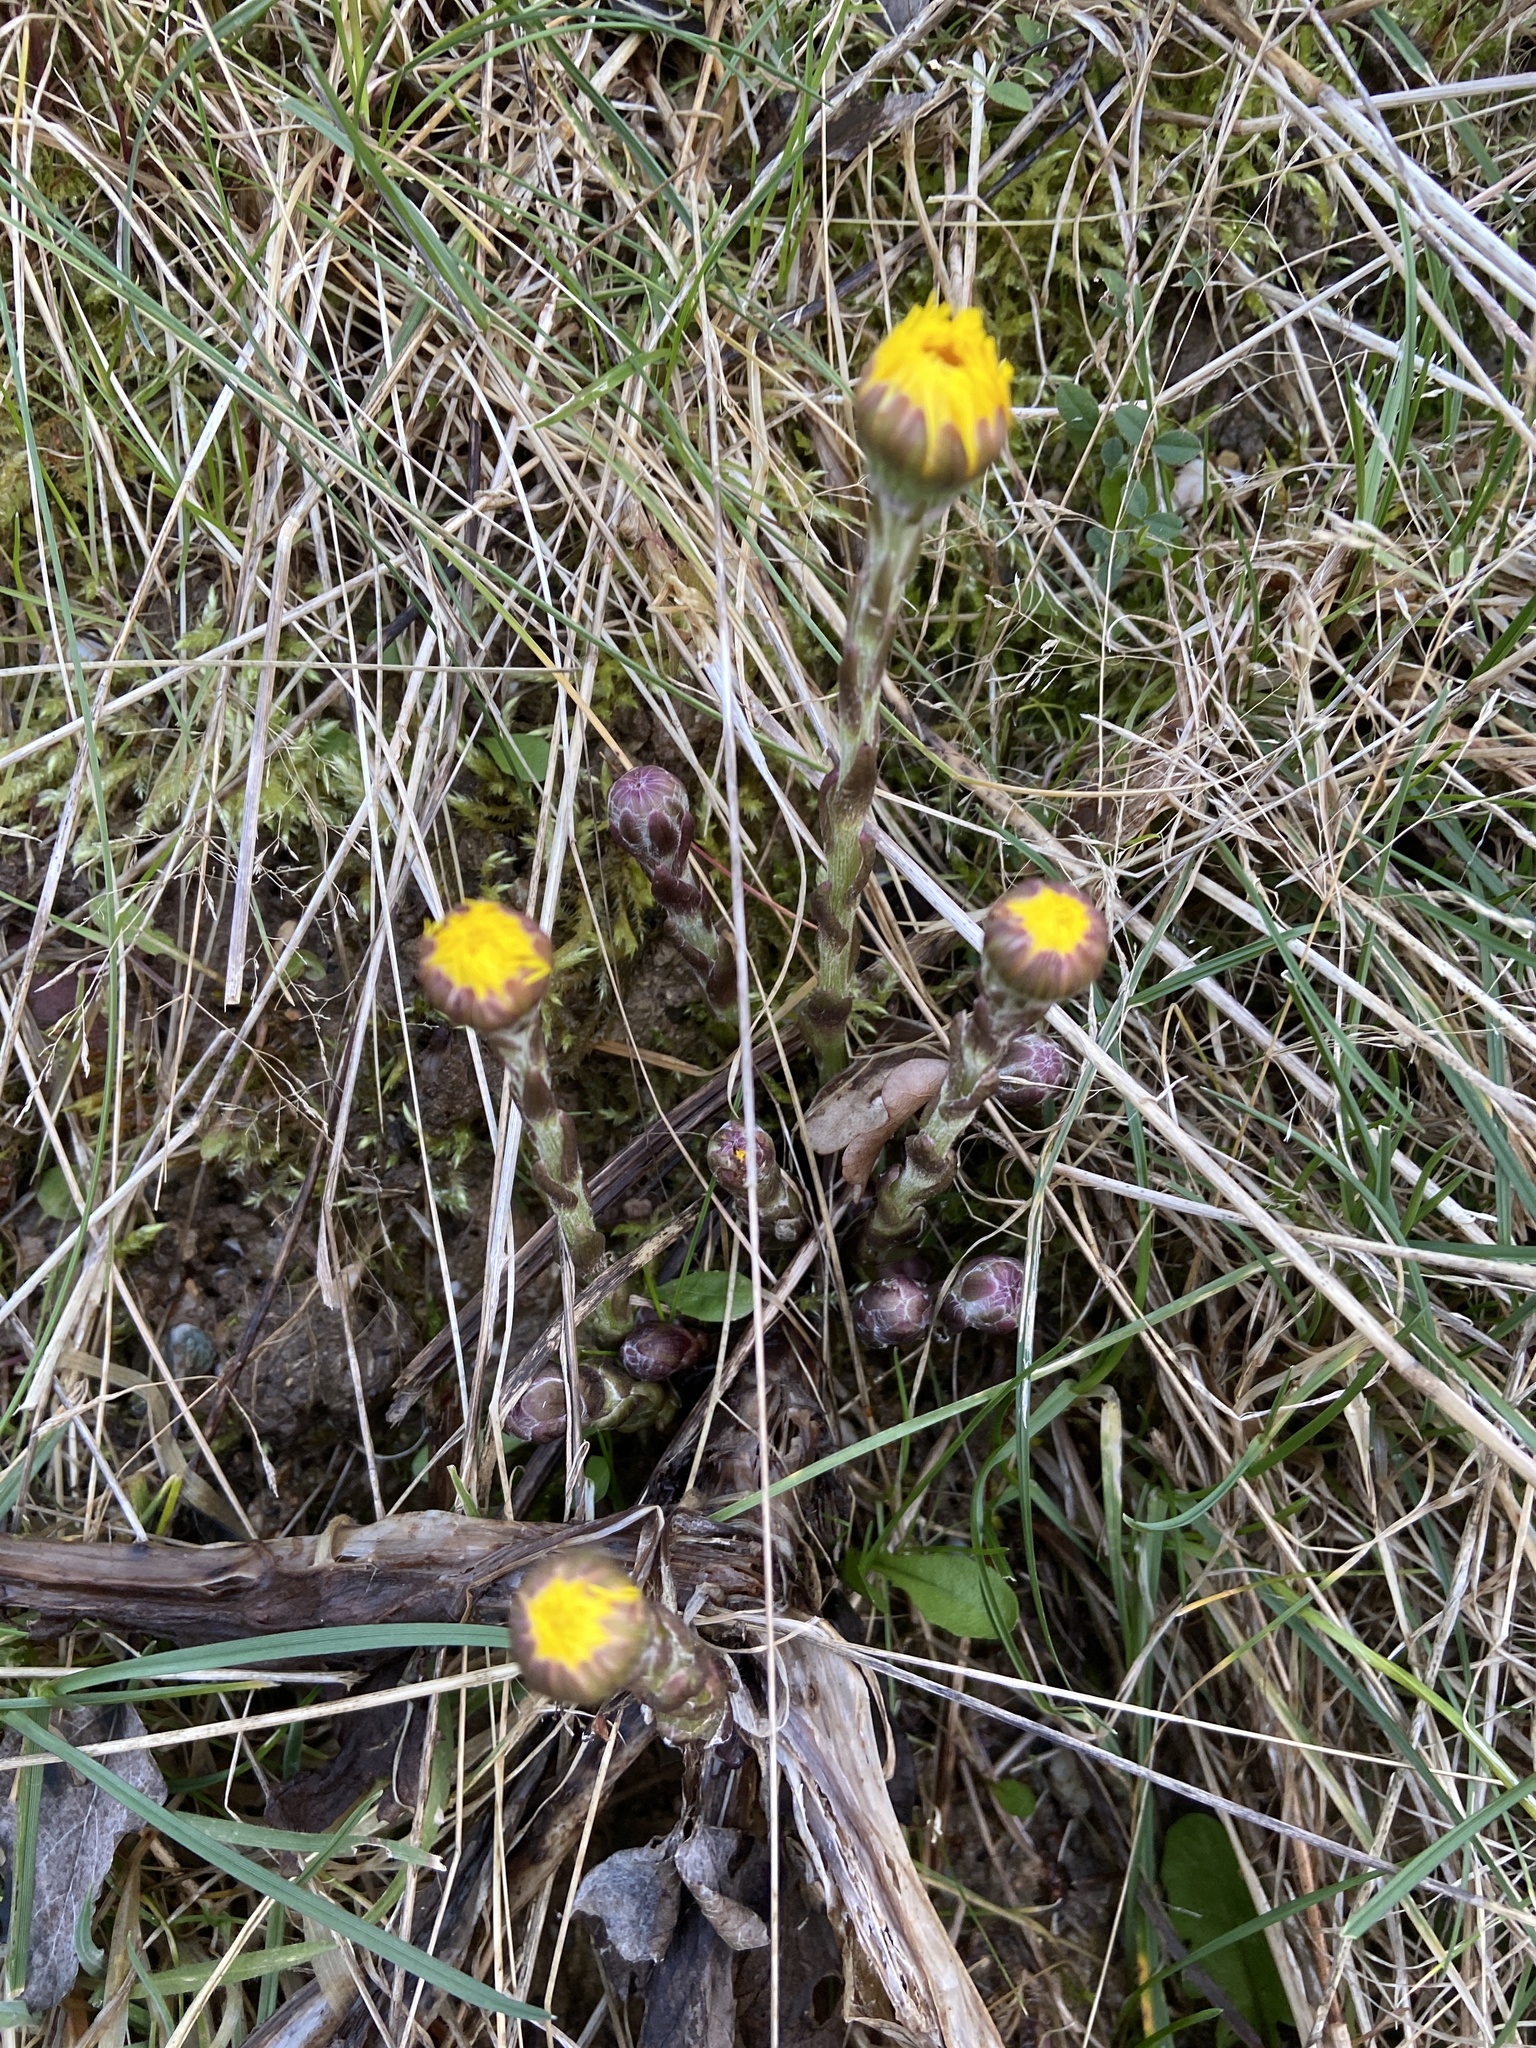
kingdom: Plantae
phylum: Tracheophyta
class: Magnoliopsida
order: Asterales
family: Asteraceae
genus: Tussilago
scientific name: Tussilago farfara
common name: Coltsfoot
